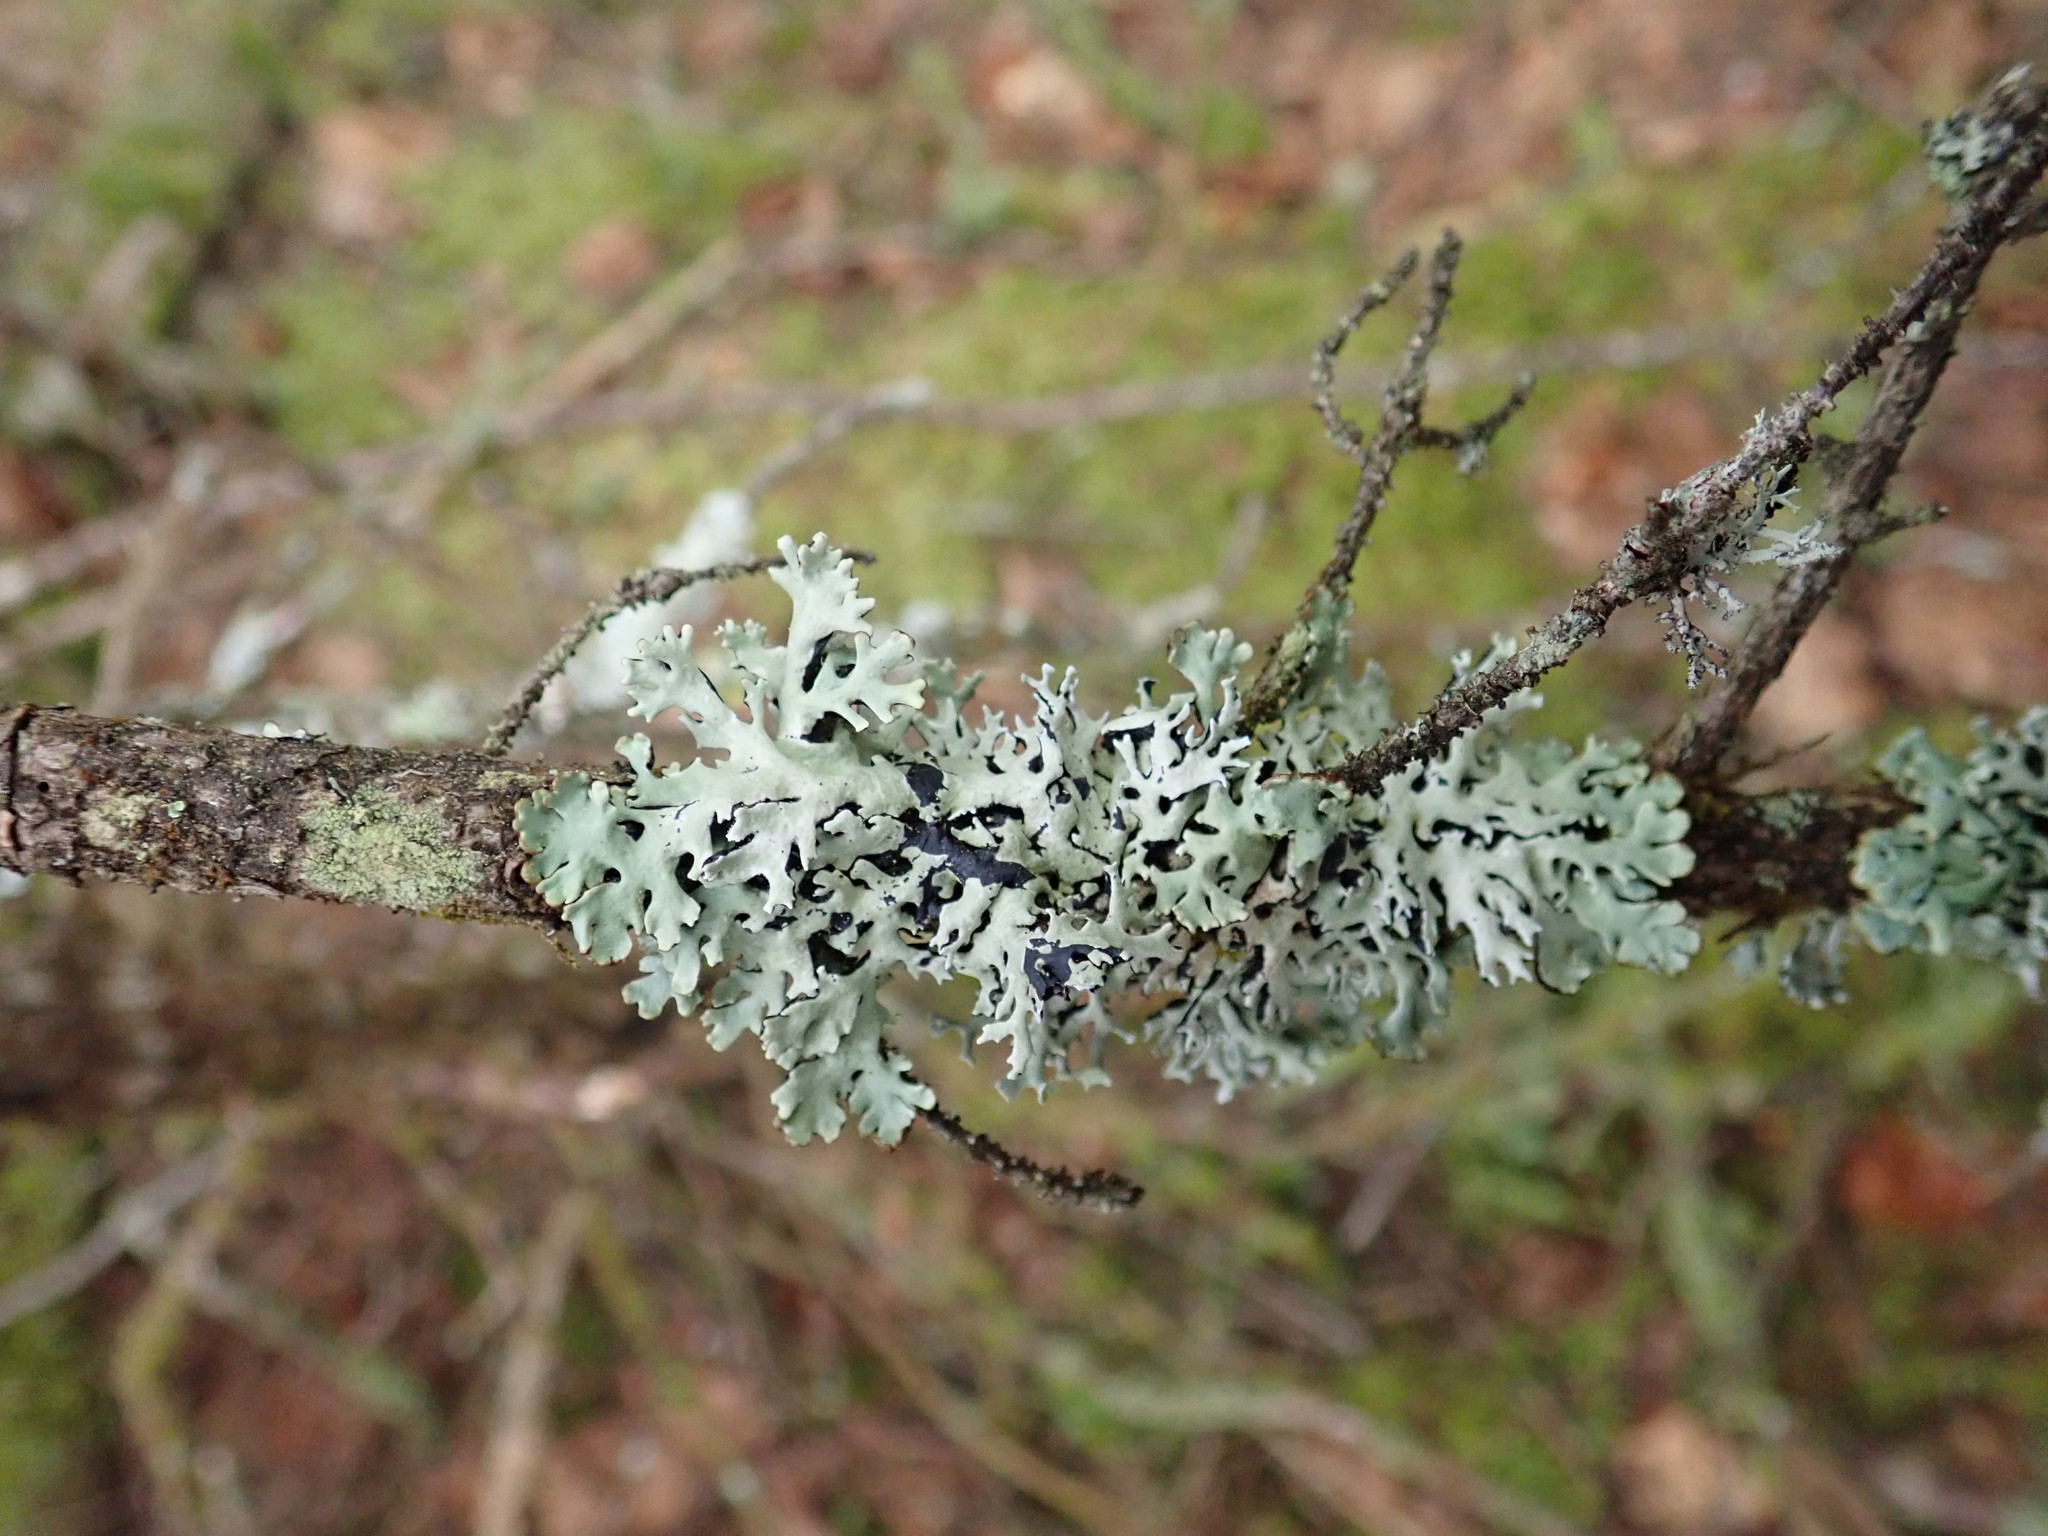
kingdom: Fungi
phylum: Ascomycota
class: Lecanoromycetes
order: Lecanorales
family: Parmeliaceae
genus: Hypogymnia
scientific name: Hypogymnia physodes
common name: Dark crottle
